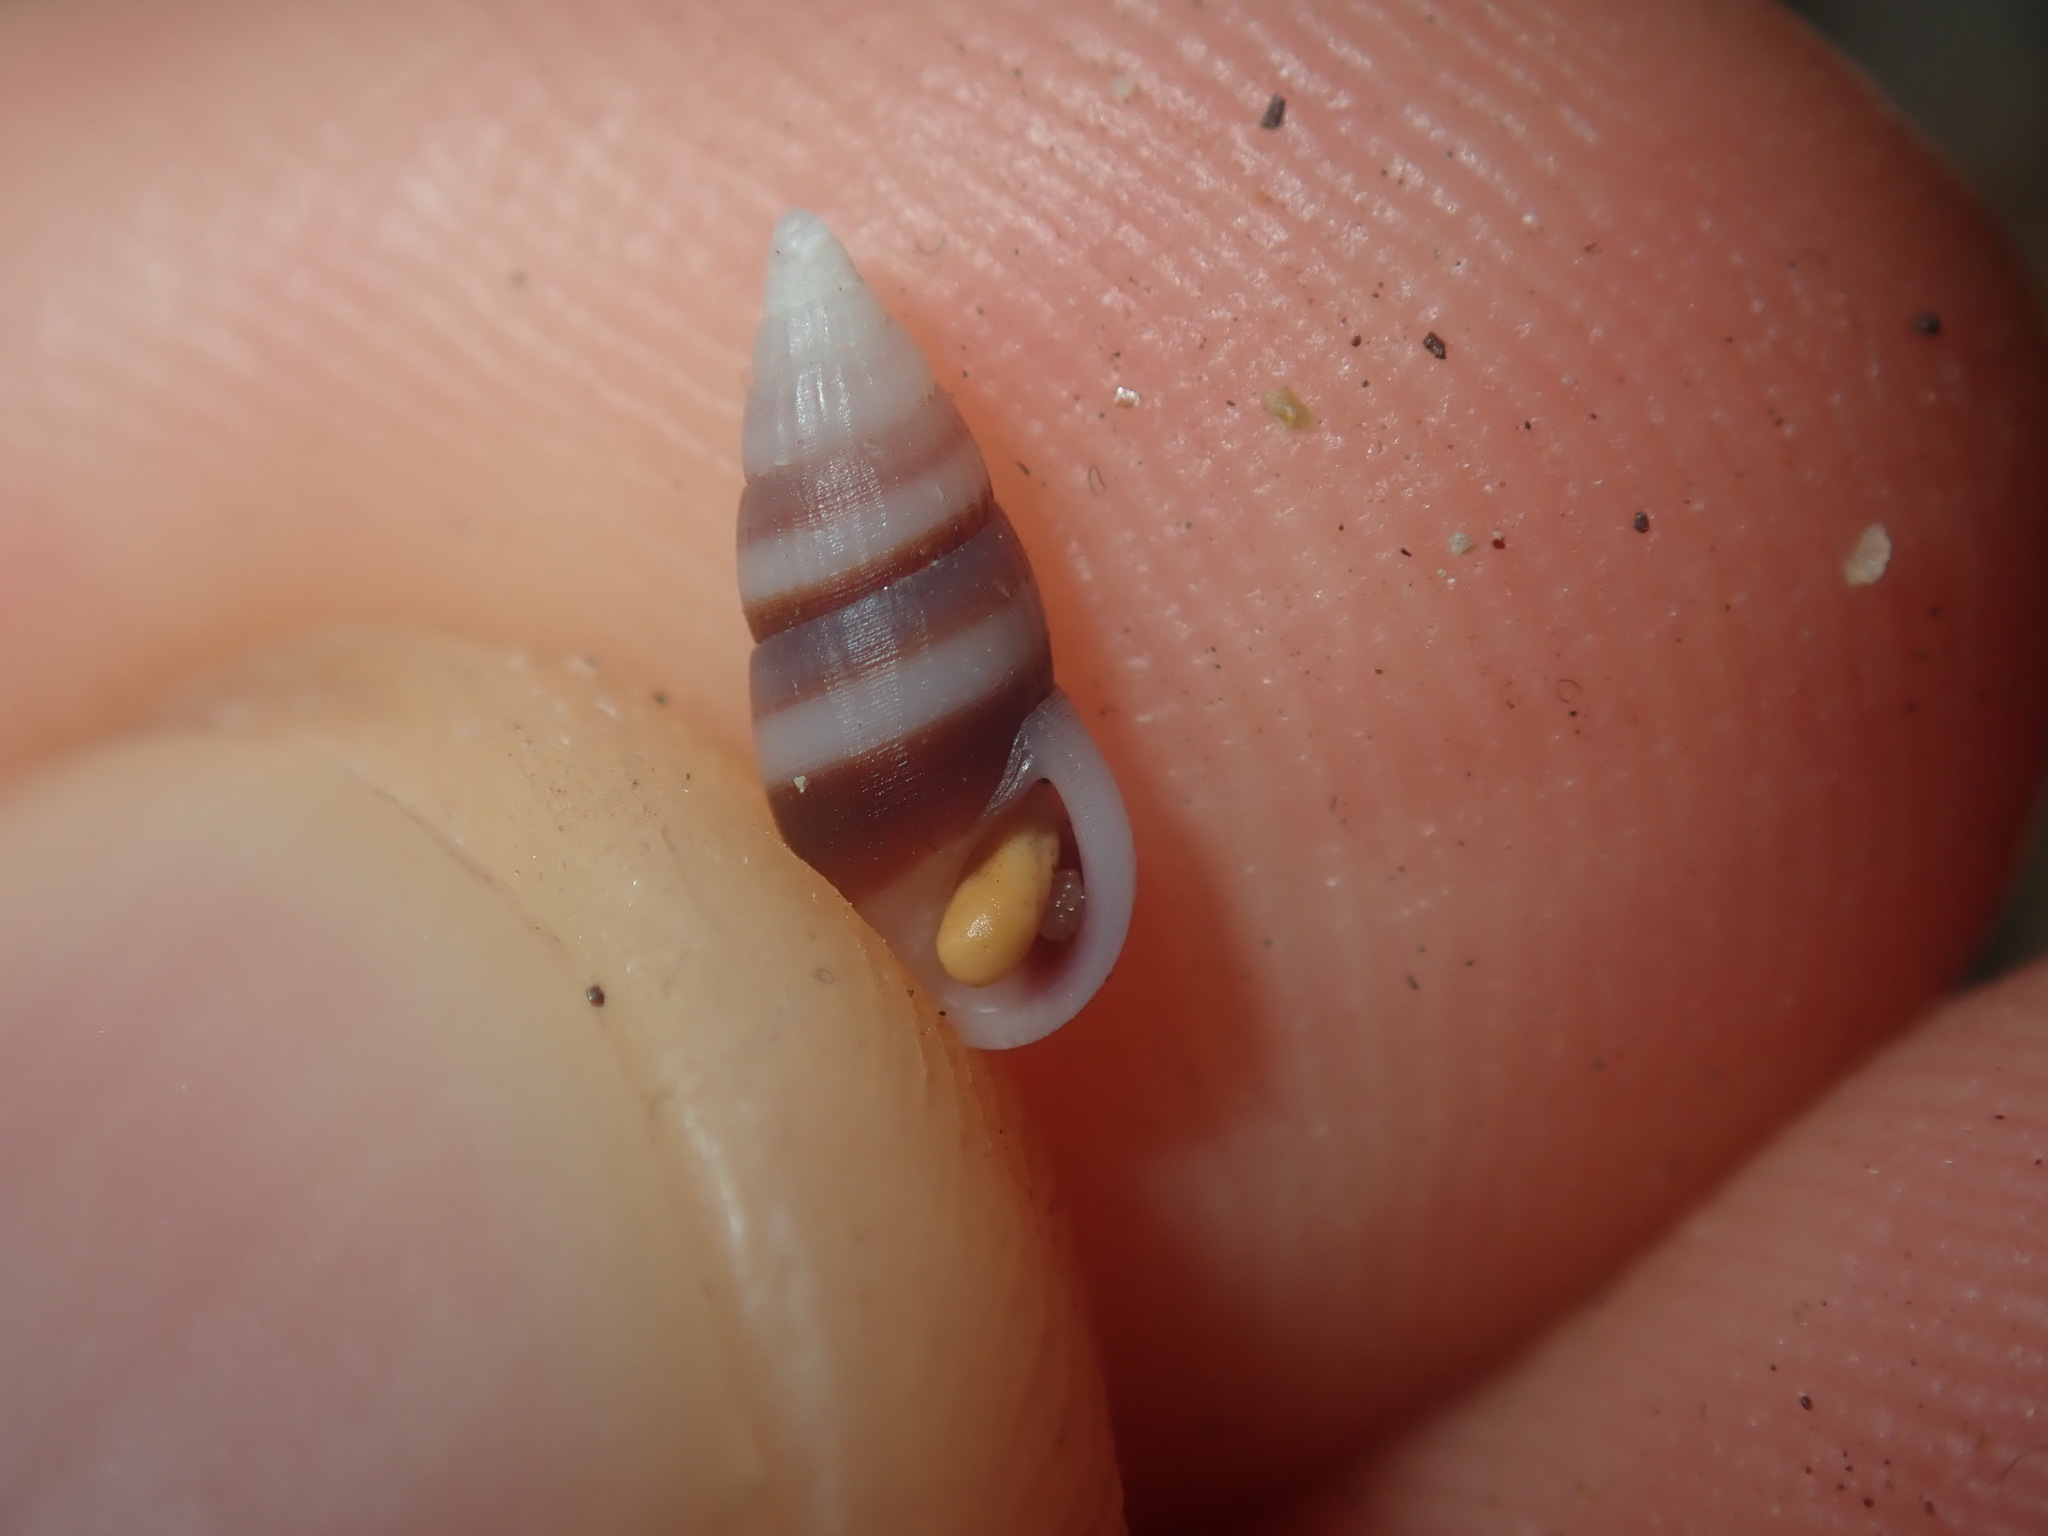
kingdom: Animalia
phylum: Mollusca
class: Gastropoda
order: Littorinimorpha
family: Rissoinidae
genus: Rissoina
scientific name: Rissoina fasciata
